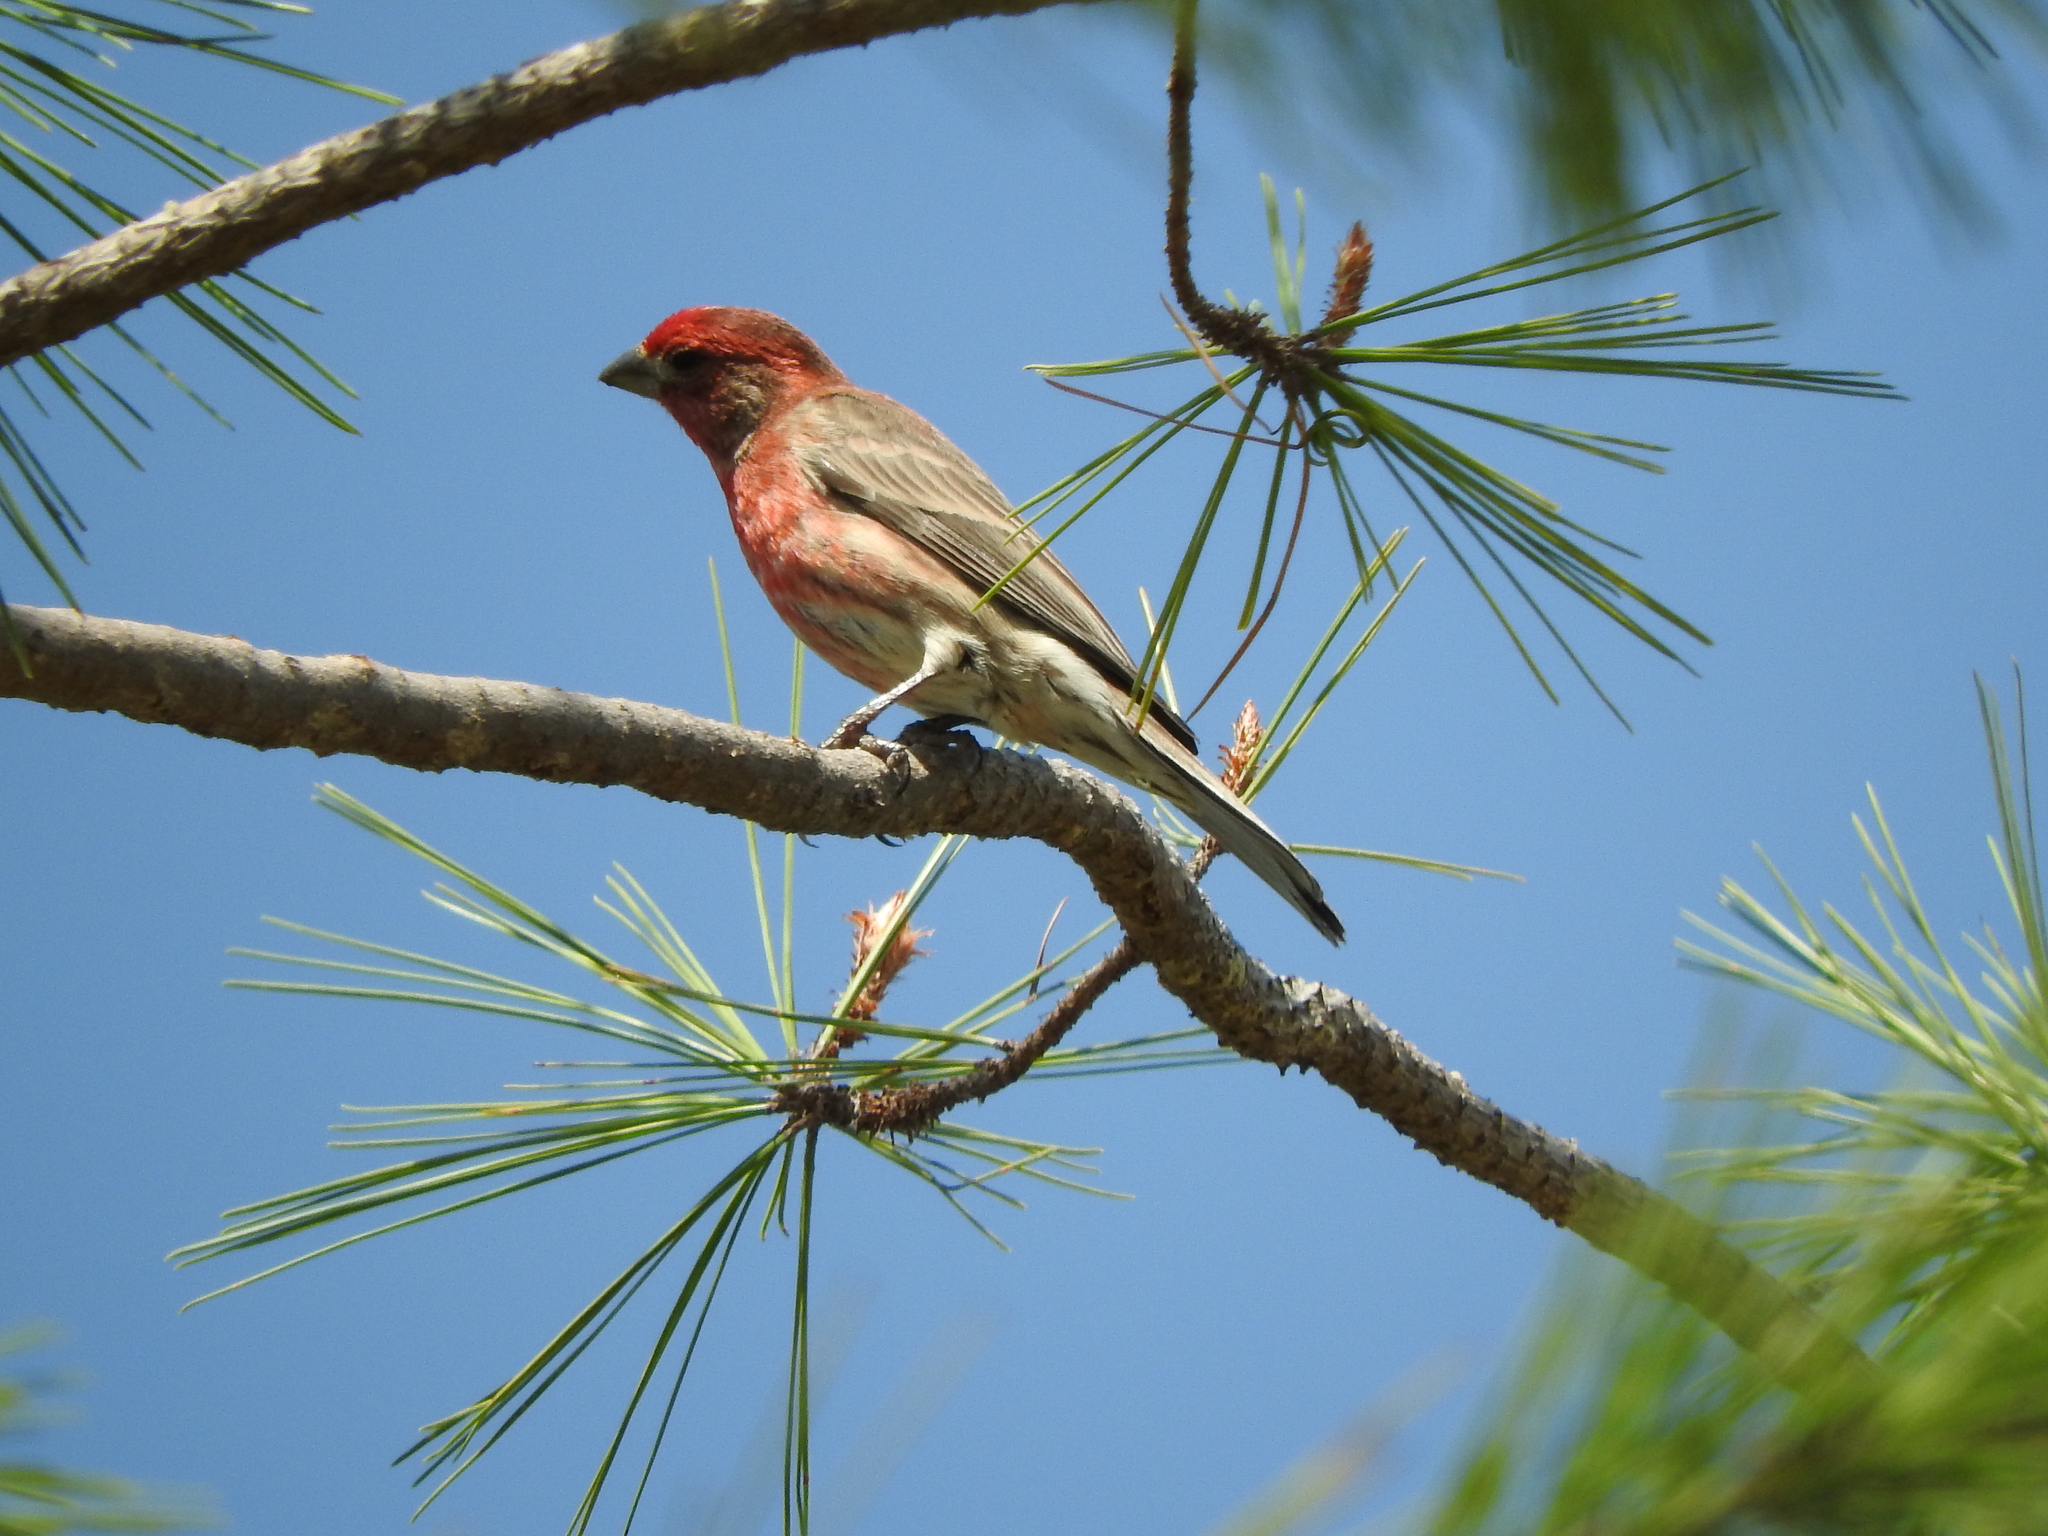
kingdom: Animalia
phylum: Chordata
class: Aves
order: Passeriformes
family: Fringillidae
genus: Haemorhous
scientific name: Haemorhous mexicanus
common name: House finch
